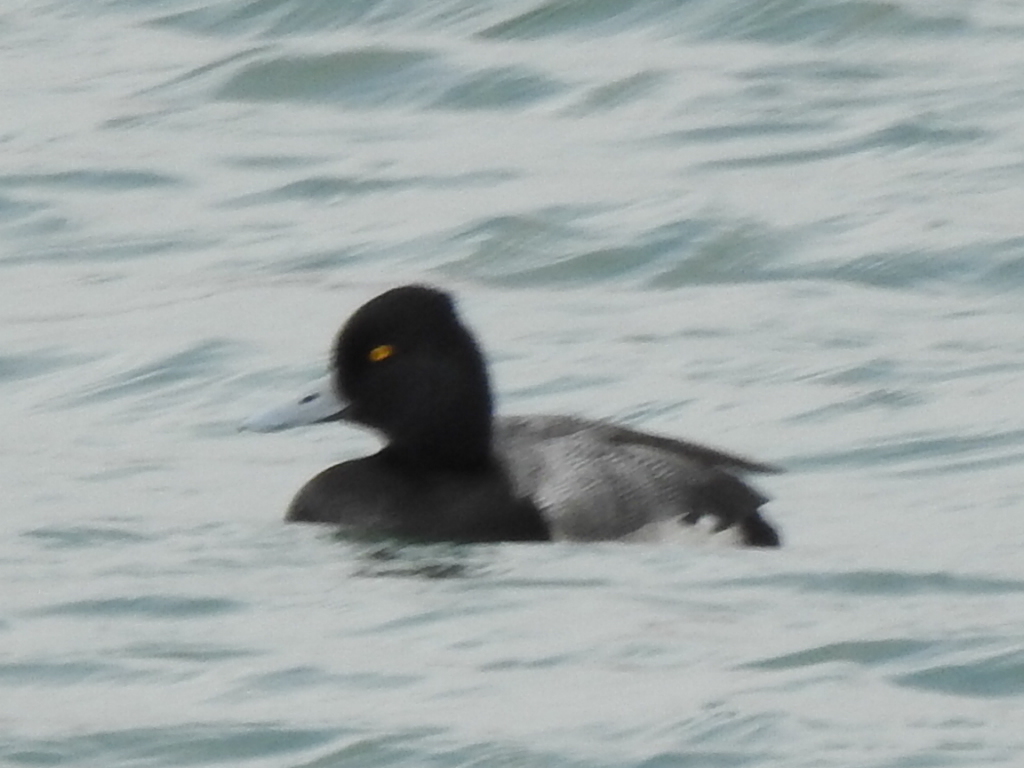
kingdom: Animalia
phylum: Chordata
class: Aves
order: Anseriformes
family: Anatidae
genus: Aythya
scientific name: Aythya affinis
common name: Lesser scaup
